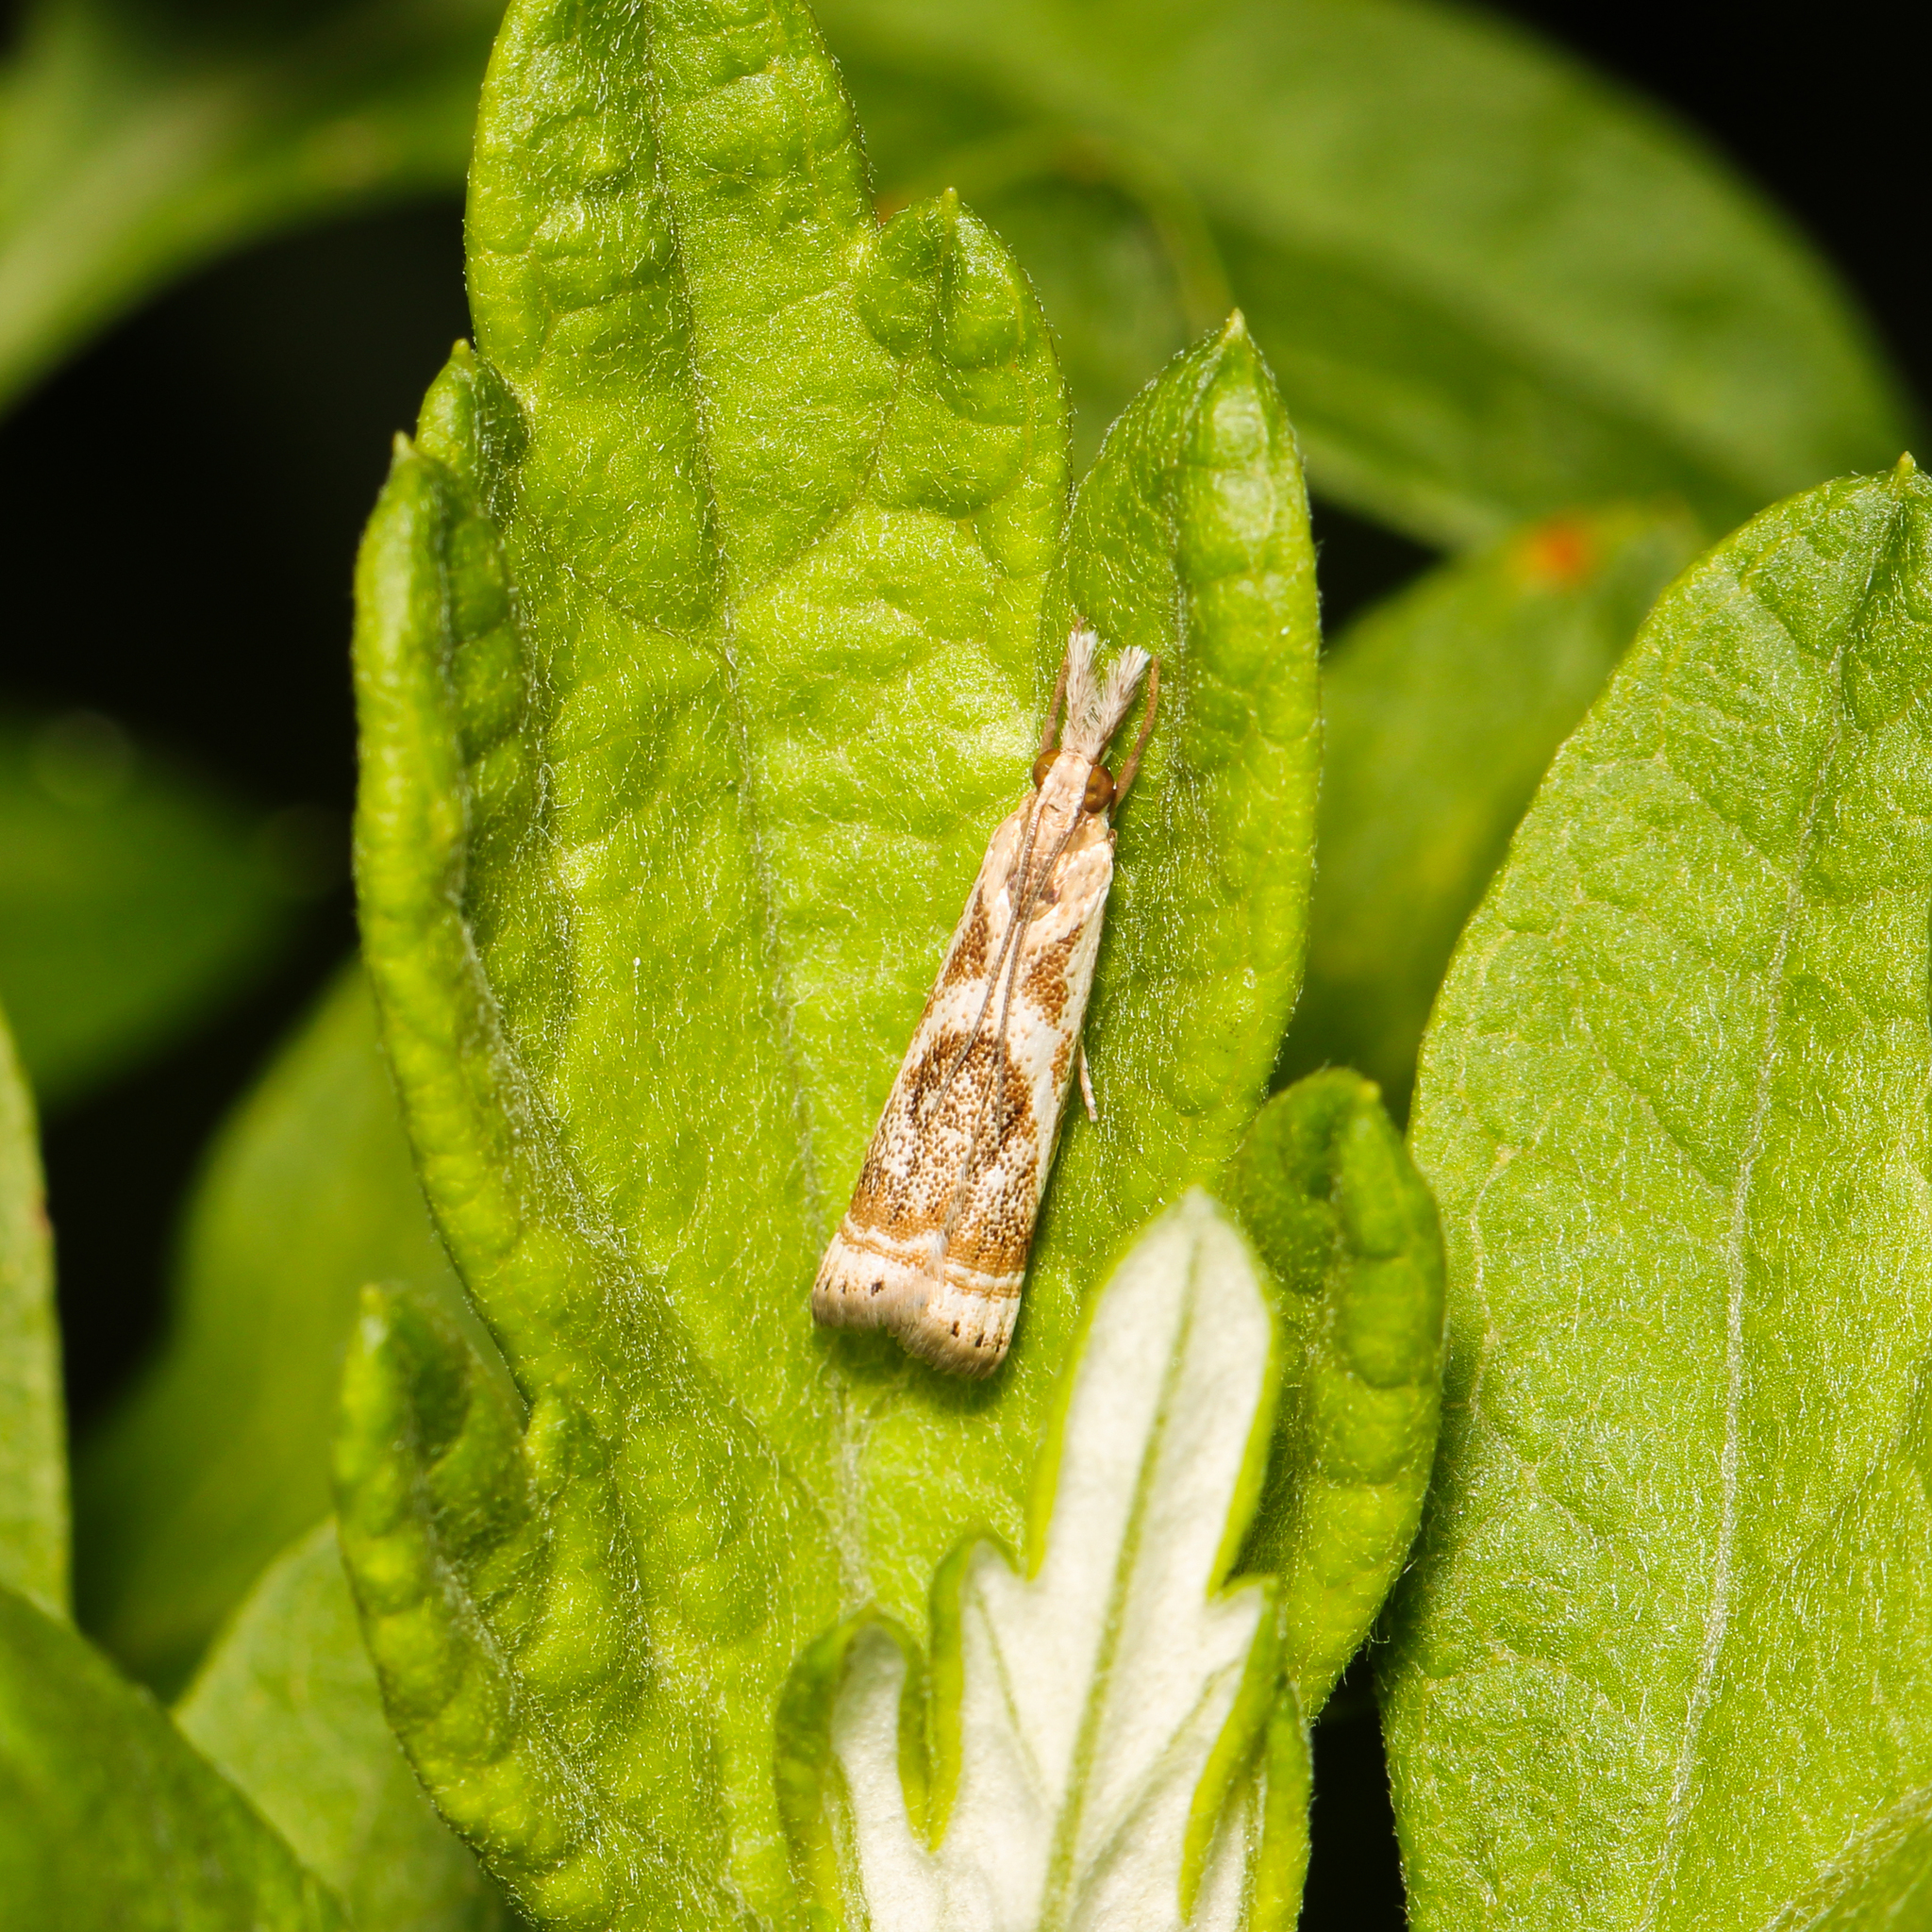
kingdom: Animalia
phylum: Arthropoda
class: Insecta
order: Lepidoptera
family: Crambidae
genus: Microcrambus
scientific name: Microcrambus elegans
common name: Elegant grass-veneer
